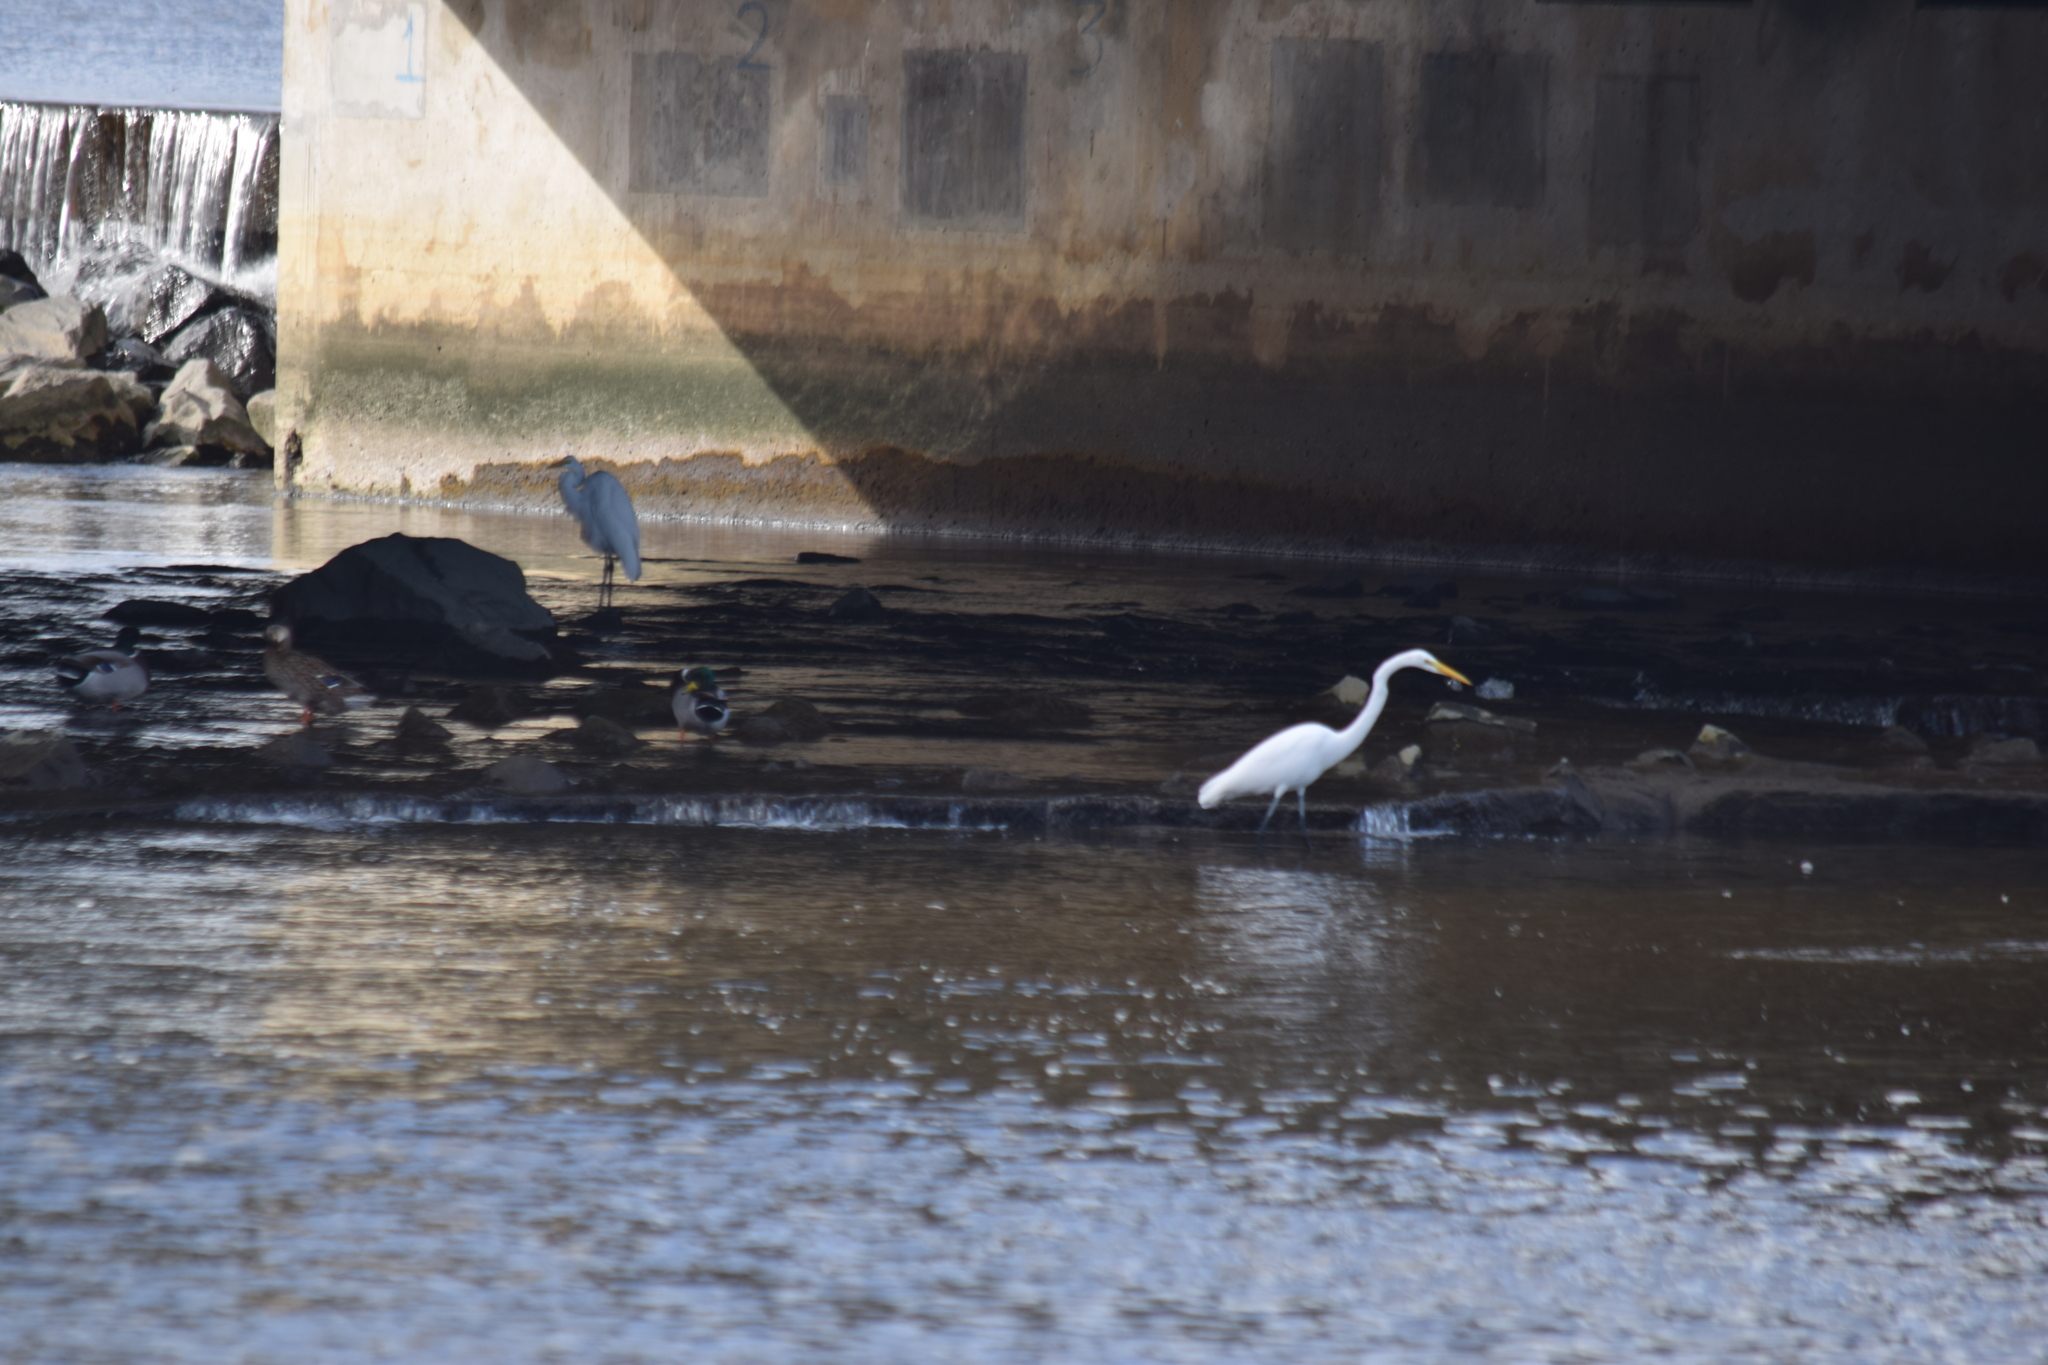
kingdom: Animalia
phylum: Chordata
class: Aves
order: Pelecaniformes
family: Ardeidae
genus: Ardea
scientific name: Ardea alba
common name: Great egret
